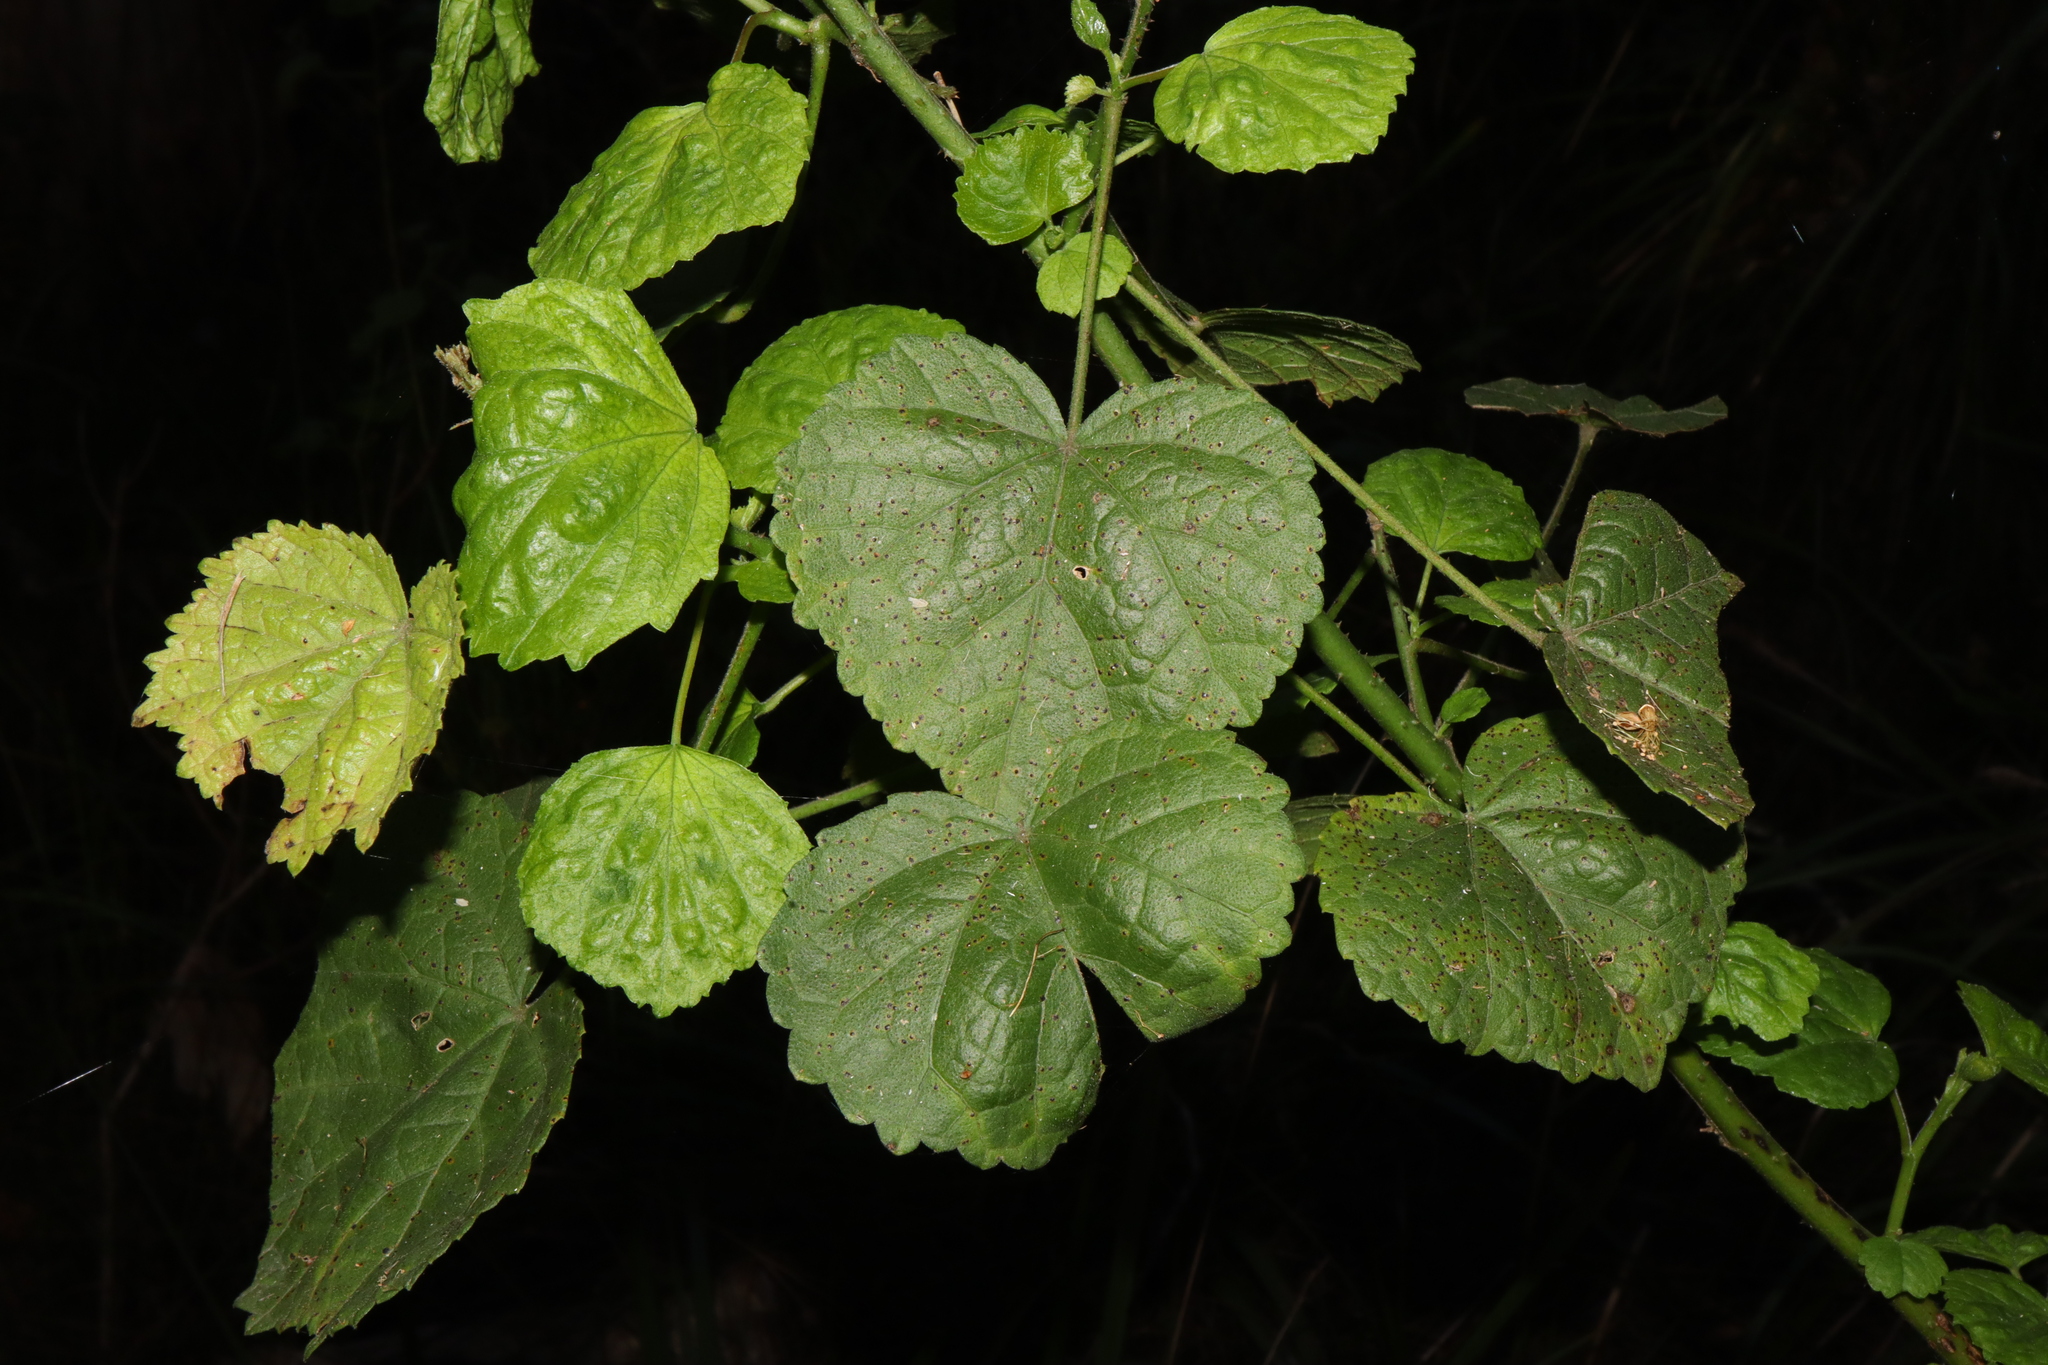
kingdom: Plantae
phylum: Tracheophyta
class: Magnoliopsida
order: Malvales
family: Malvaceae
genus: Hibiscus
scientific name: Hibiscus diversifolius
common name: Cape hibiscus
